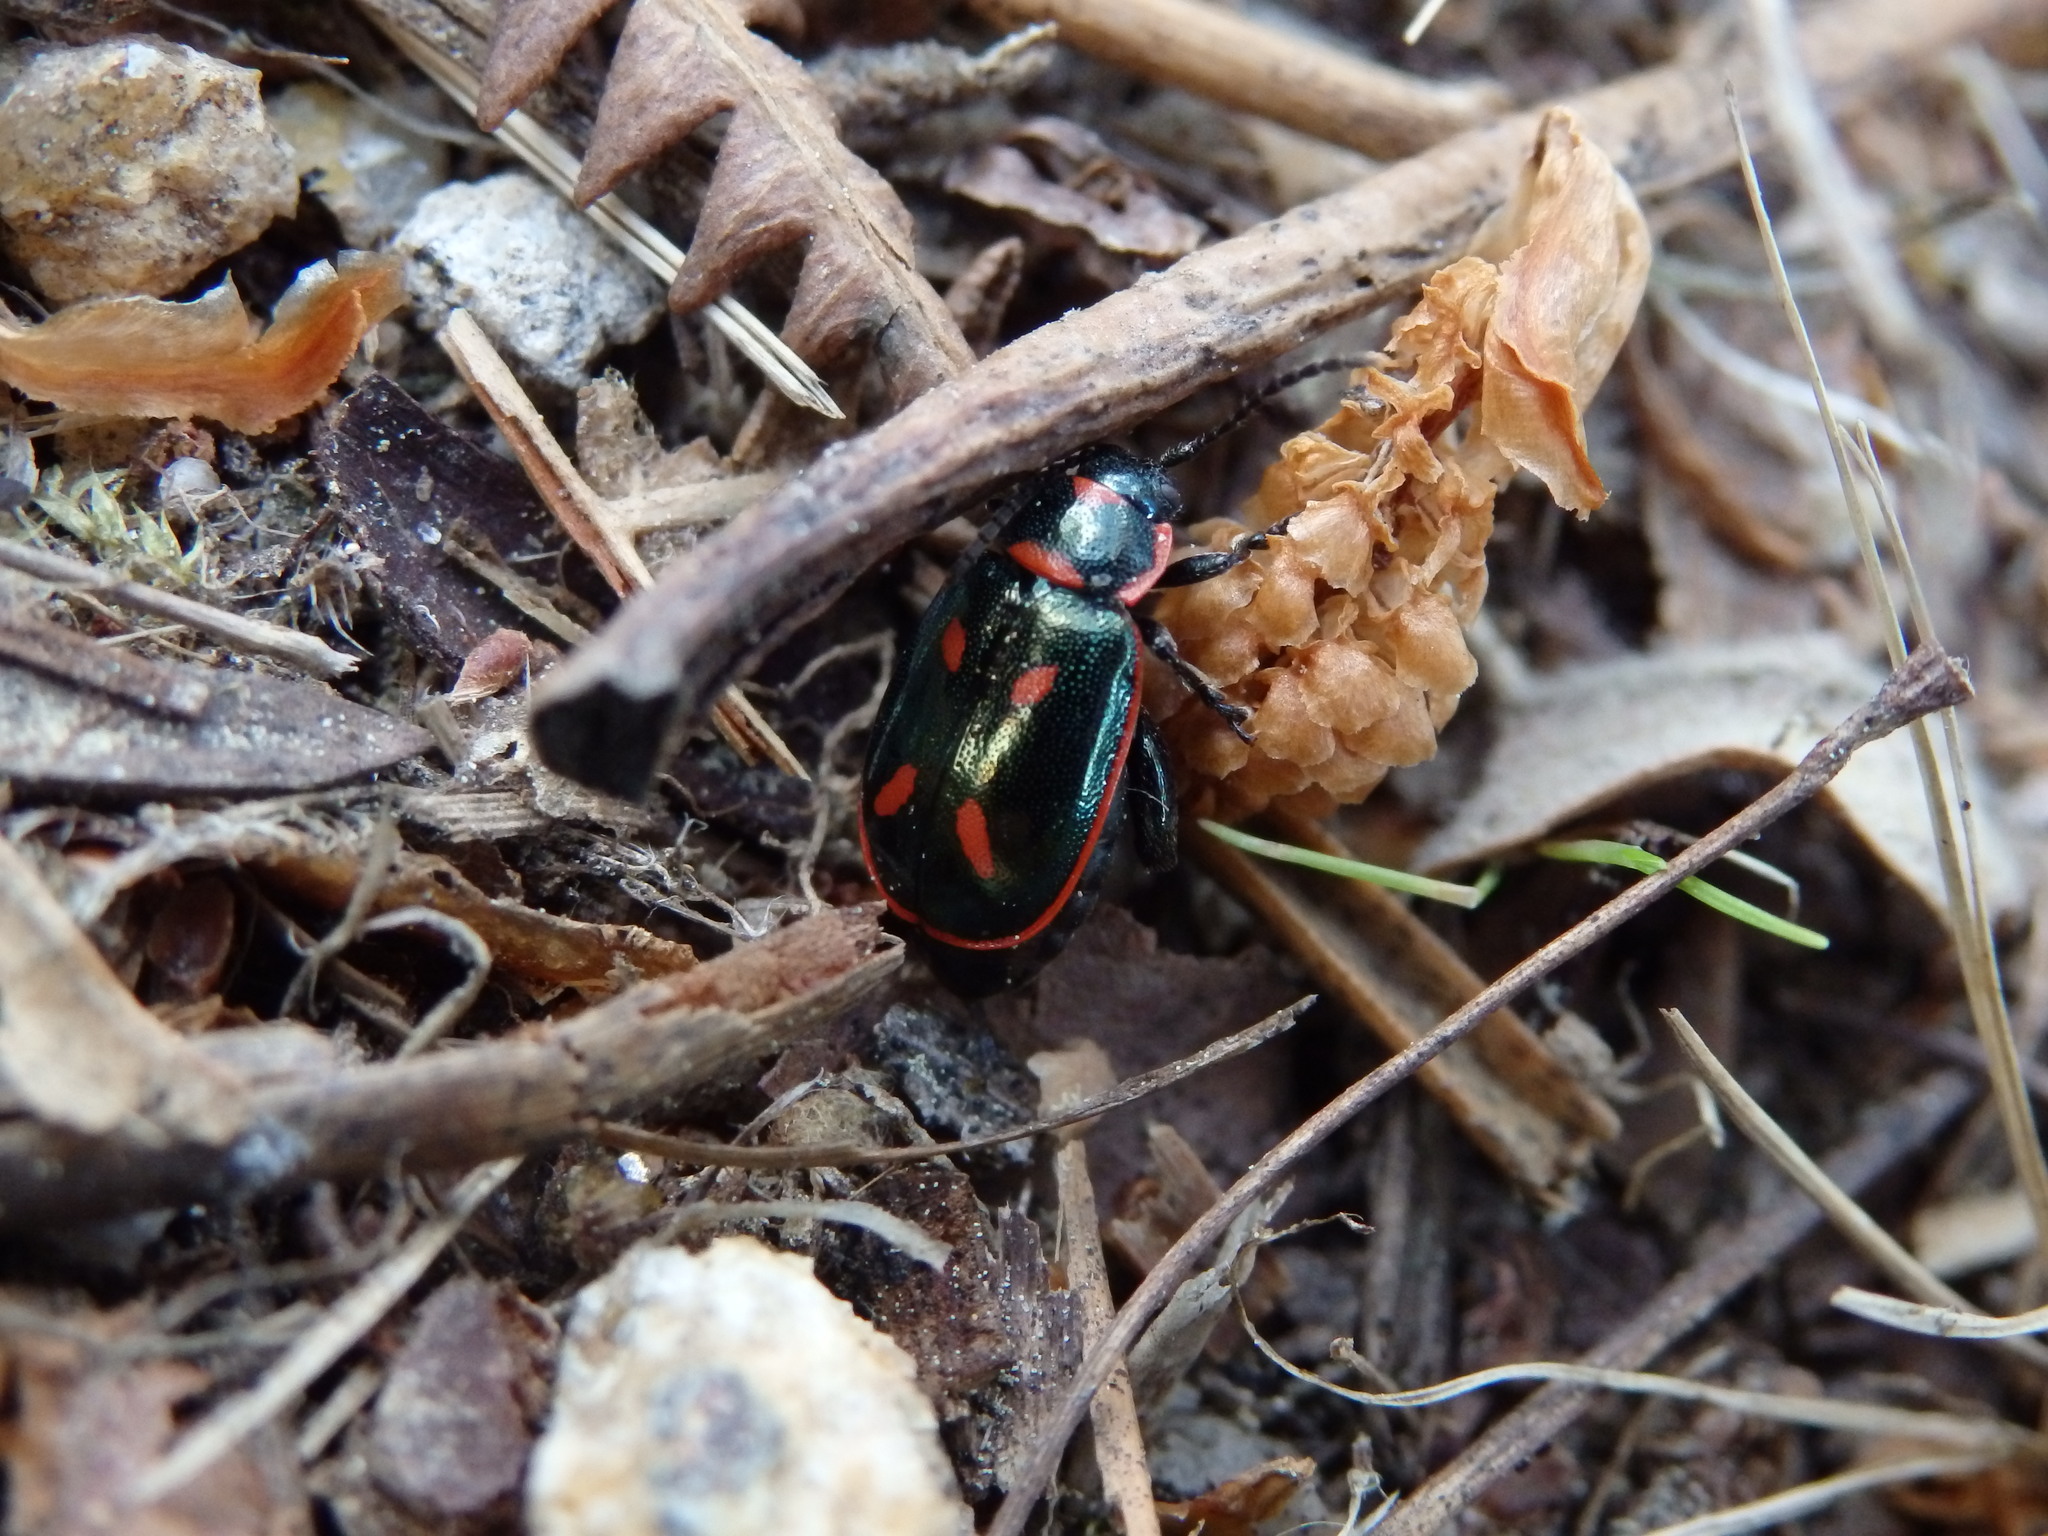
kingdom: Animalia
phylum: Arthropoda
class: Insecta
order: Coleoptera
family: Chrysomelidae
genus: Oedionychis
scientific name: Oedionychis cincta
